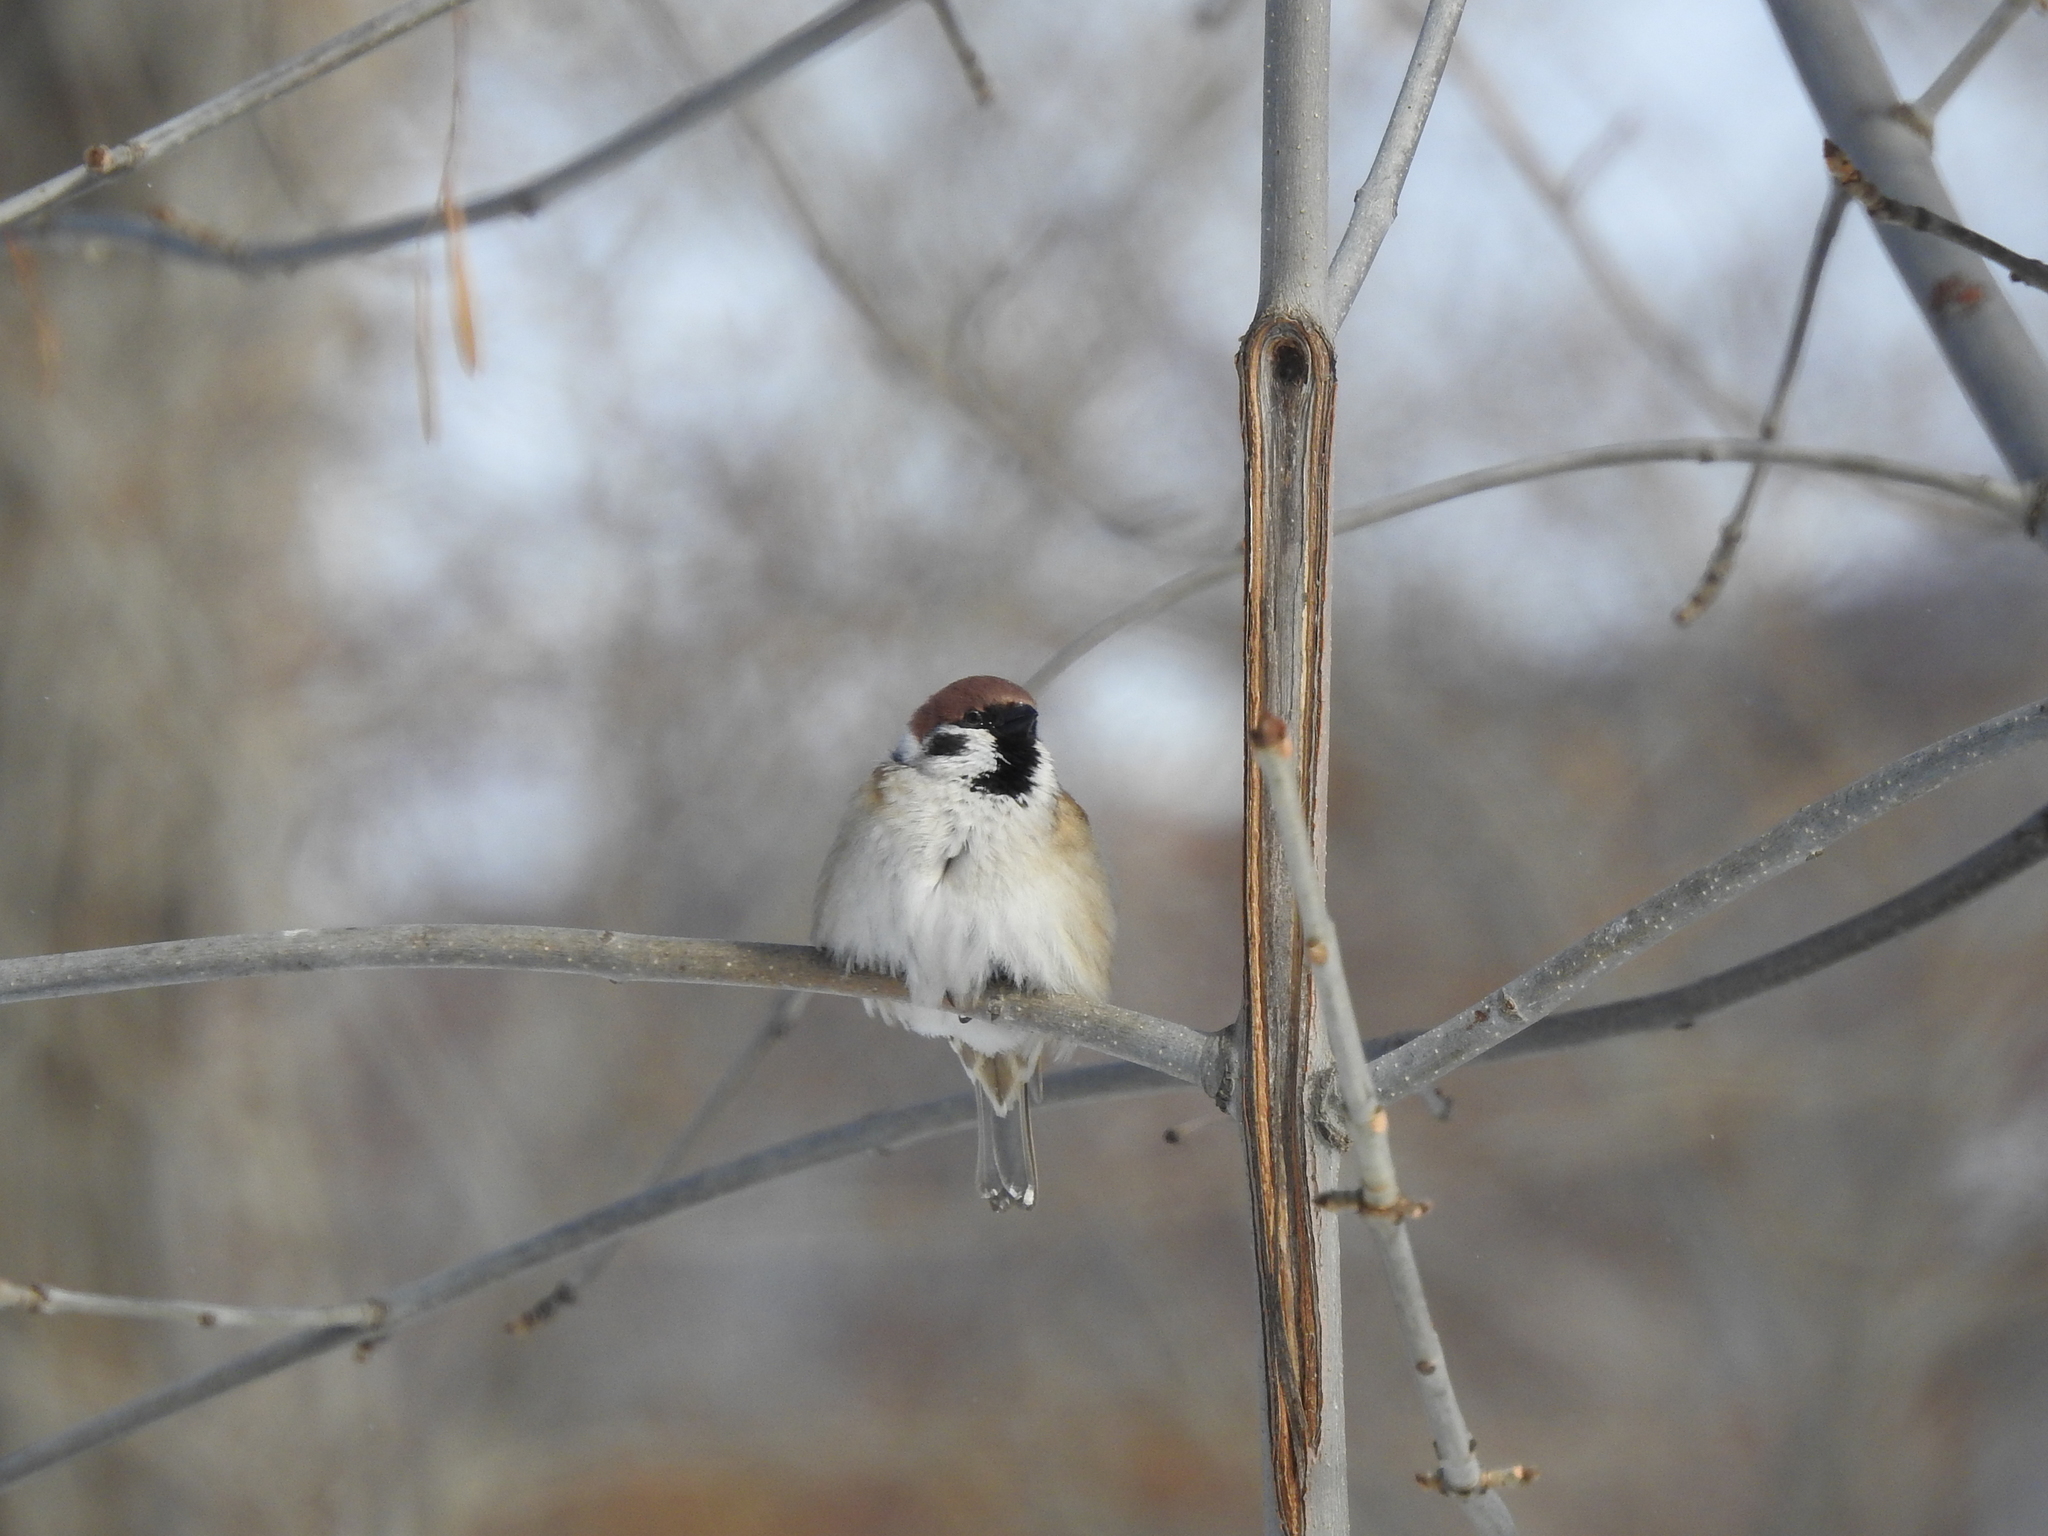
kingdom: Animalia
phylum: Chordata
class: Aves
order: Passeriformes
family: Passeridae
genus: Passer
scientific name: Passer montanus
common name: Eurasian tree sparrow
